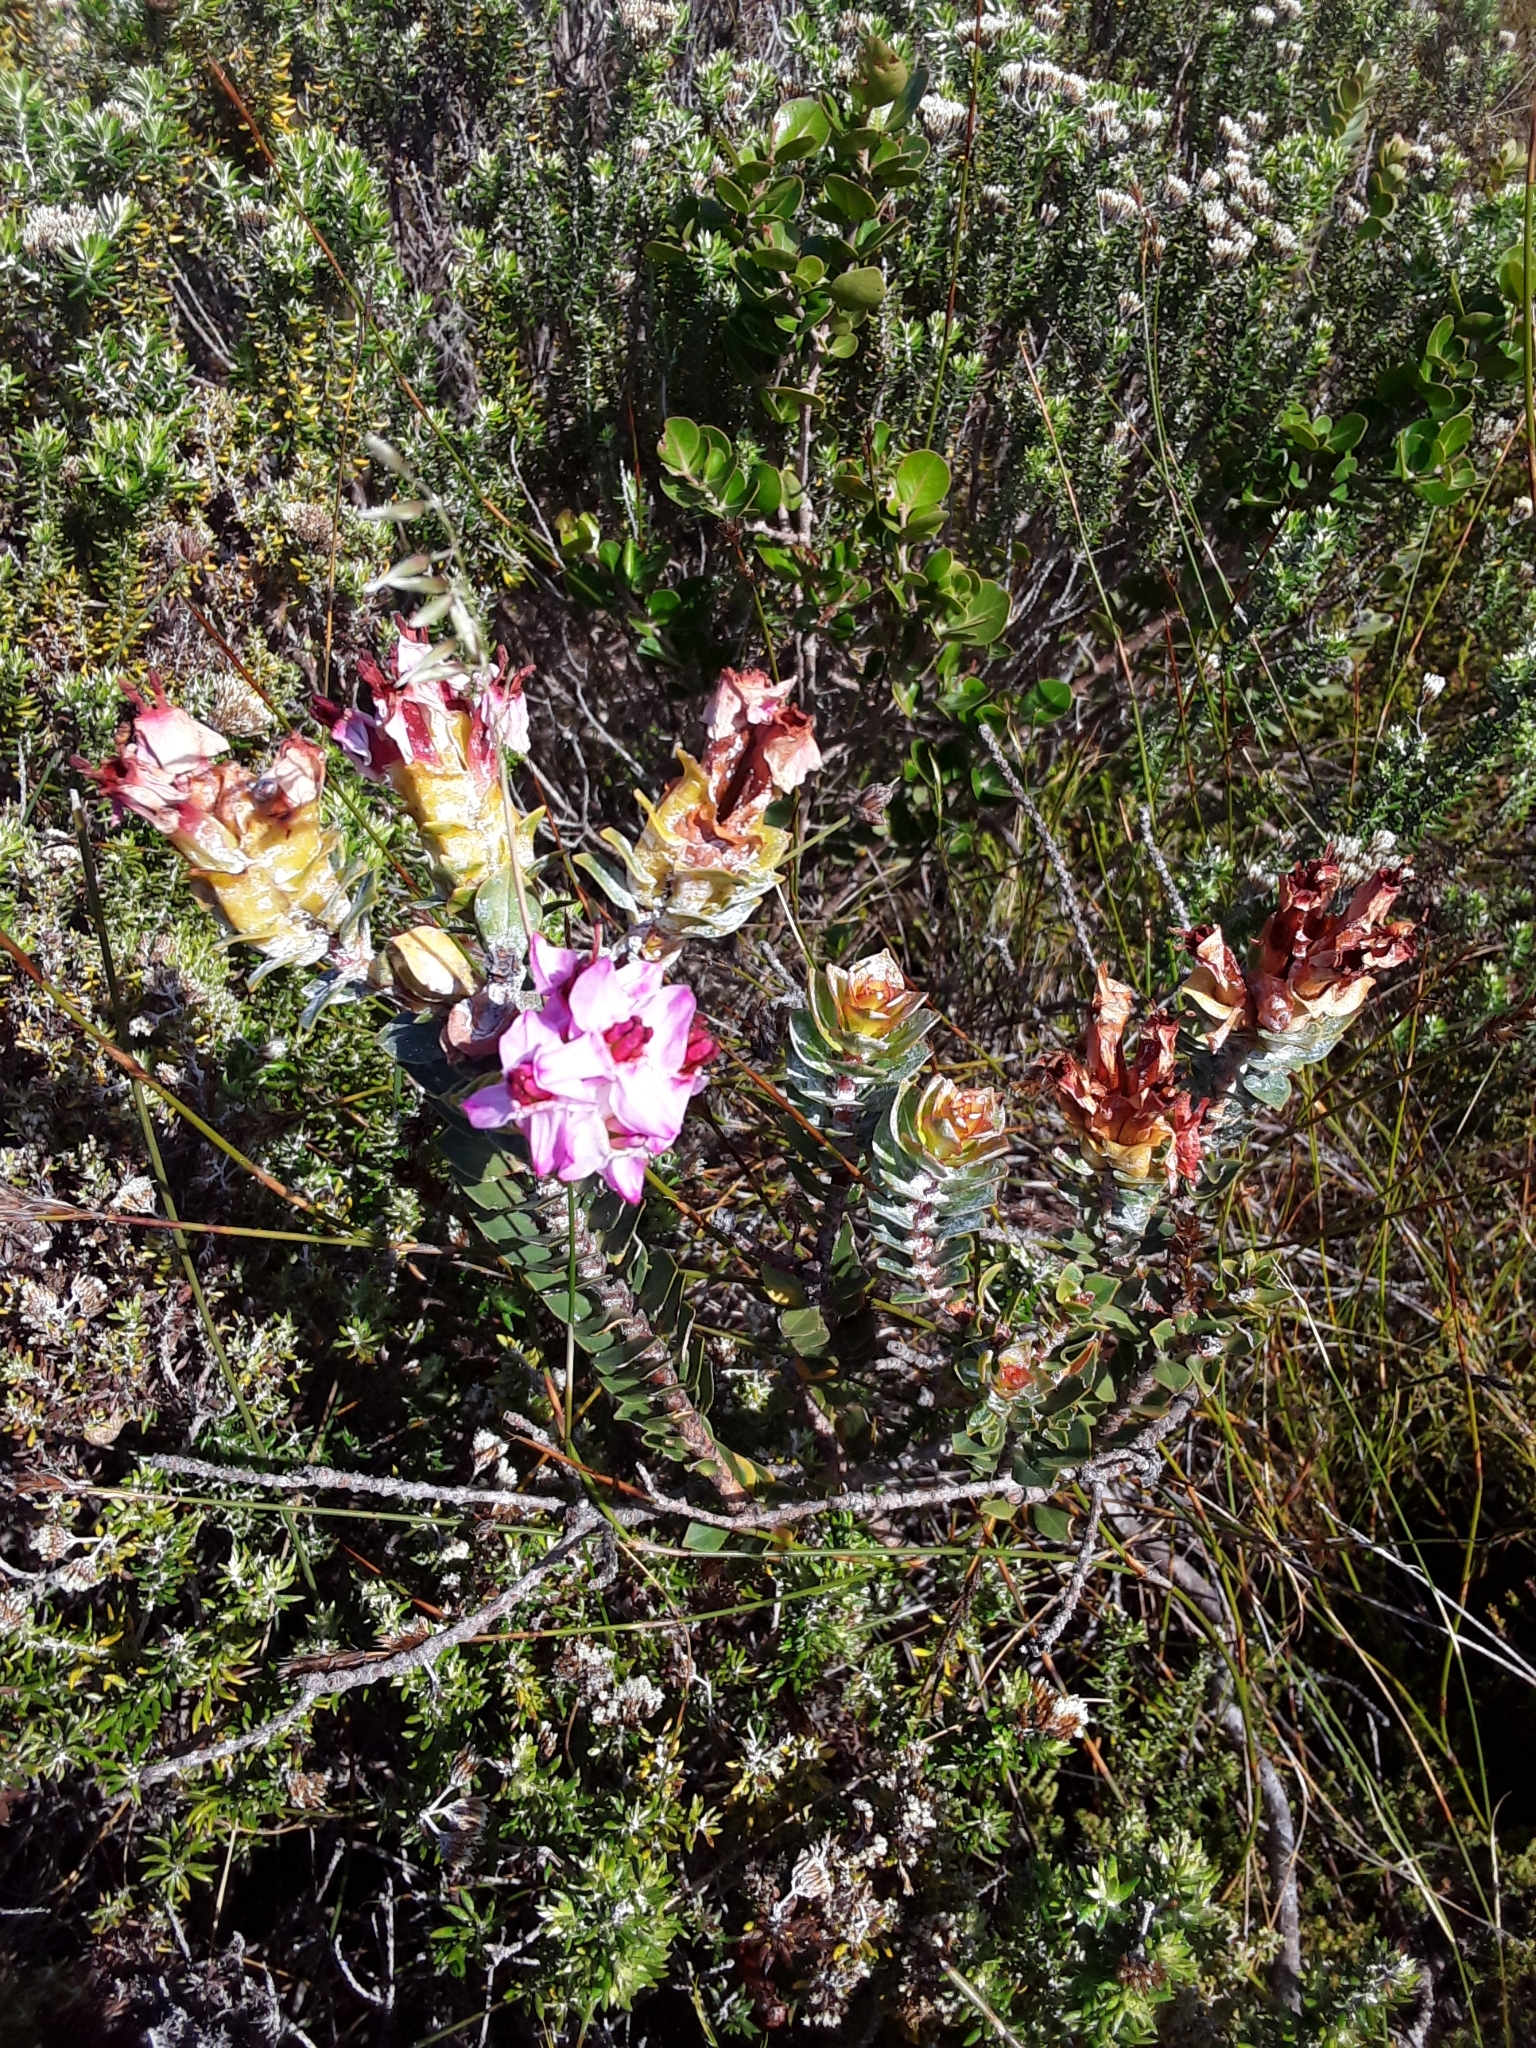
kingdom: Plantae
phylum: Tracheophyta
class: Magnoliopsida
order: Myrtales
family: Penaeaceae
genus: Saltera
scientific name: Saltera sarcocolla
